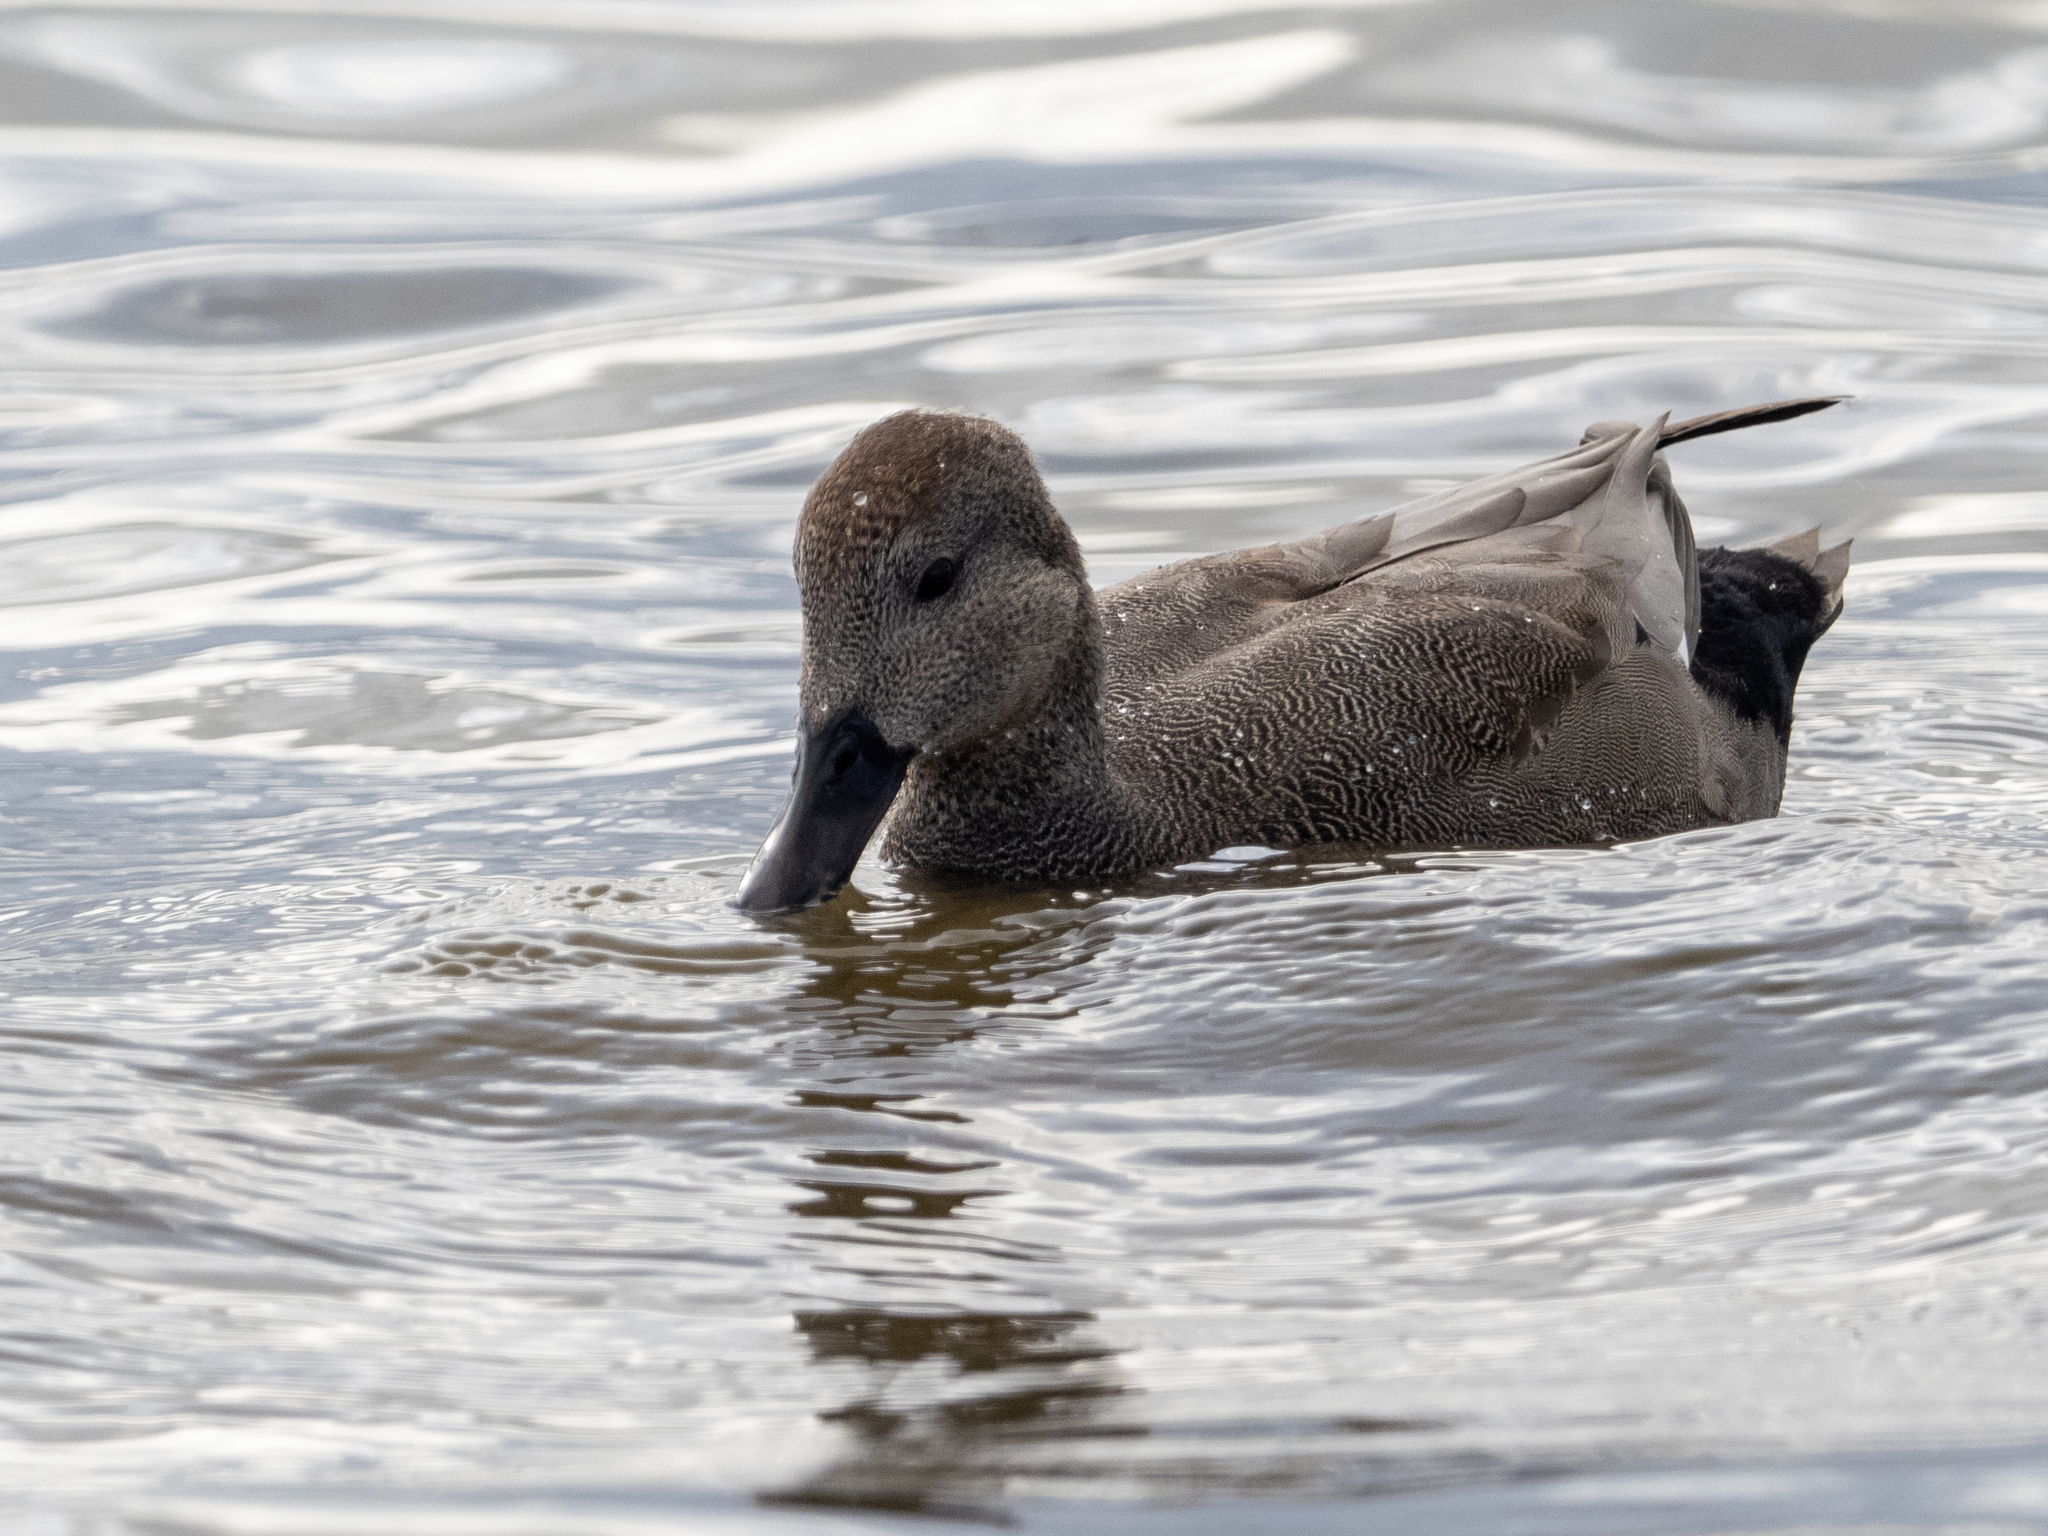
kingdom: Animalia
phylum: Chordata
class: Aves
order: Anseriformes
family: Anatidae
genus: Mareca
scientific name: Mareca strepera
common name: Gadwall
